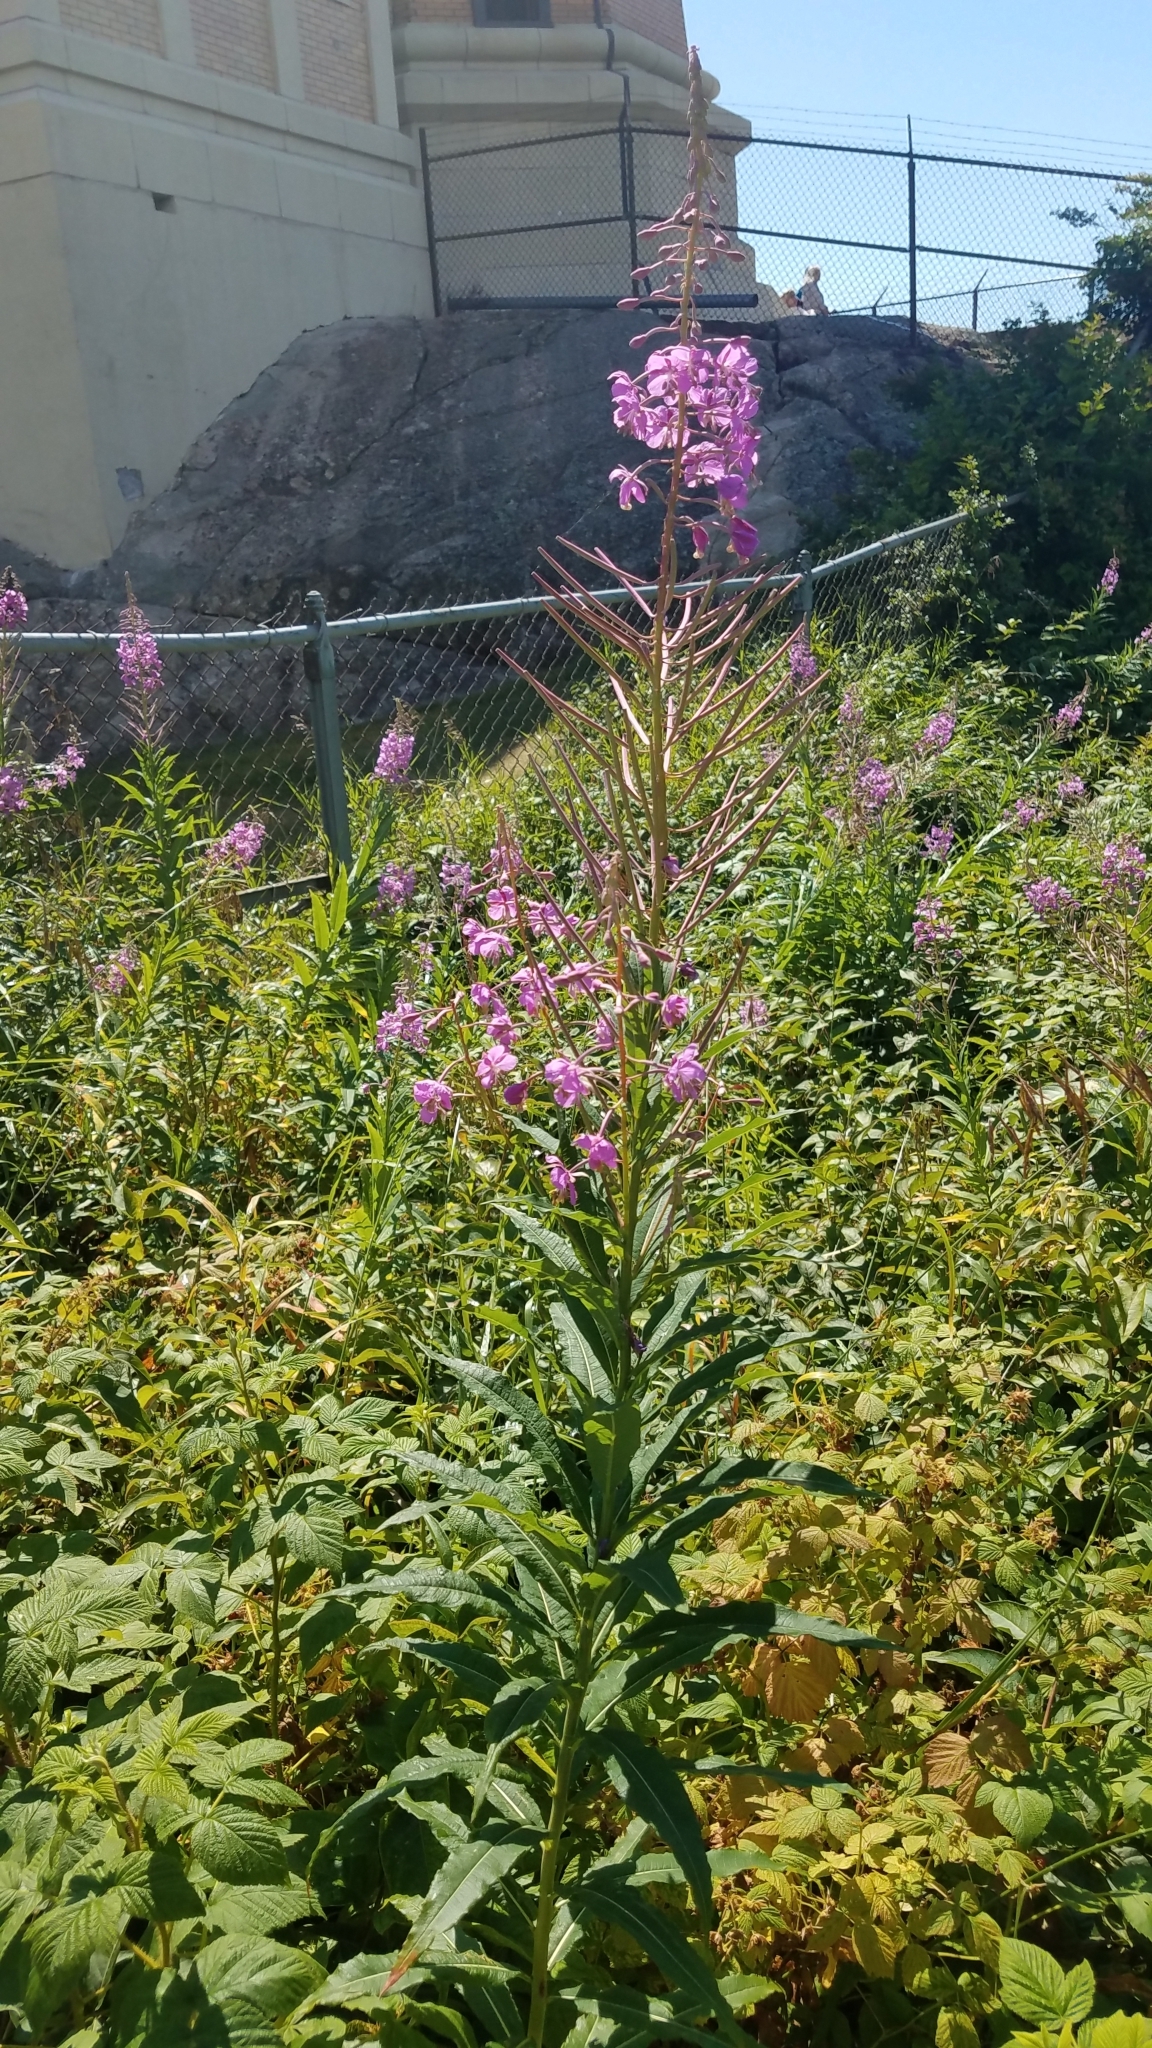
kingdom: Plantae
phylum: Tracheophyta
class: Magnoliopsida
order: Myrtales
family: Onagraceae
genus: Chamaenerion
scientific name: Chamaenerion angustifolium
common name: Fireweed
